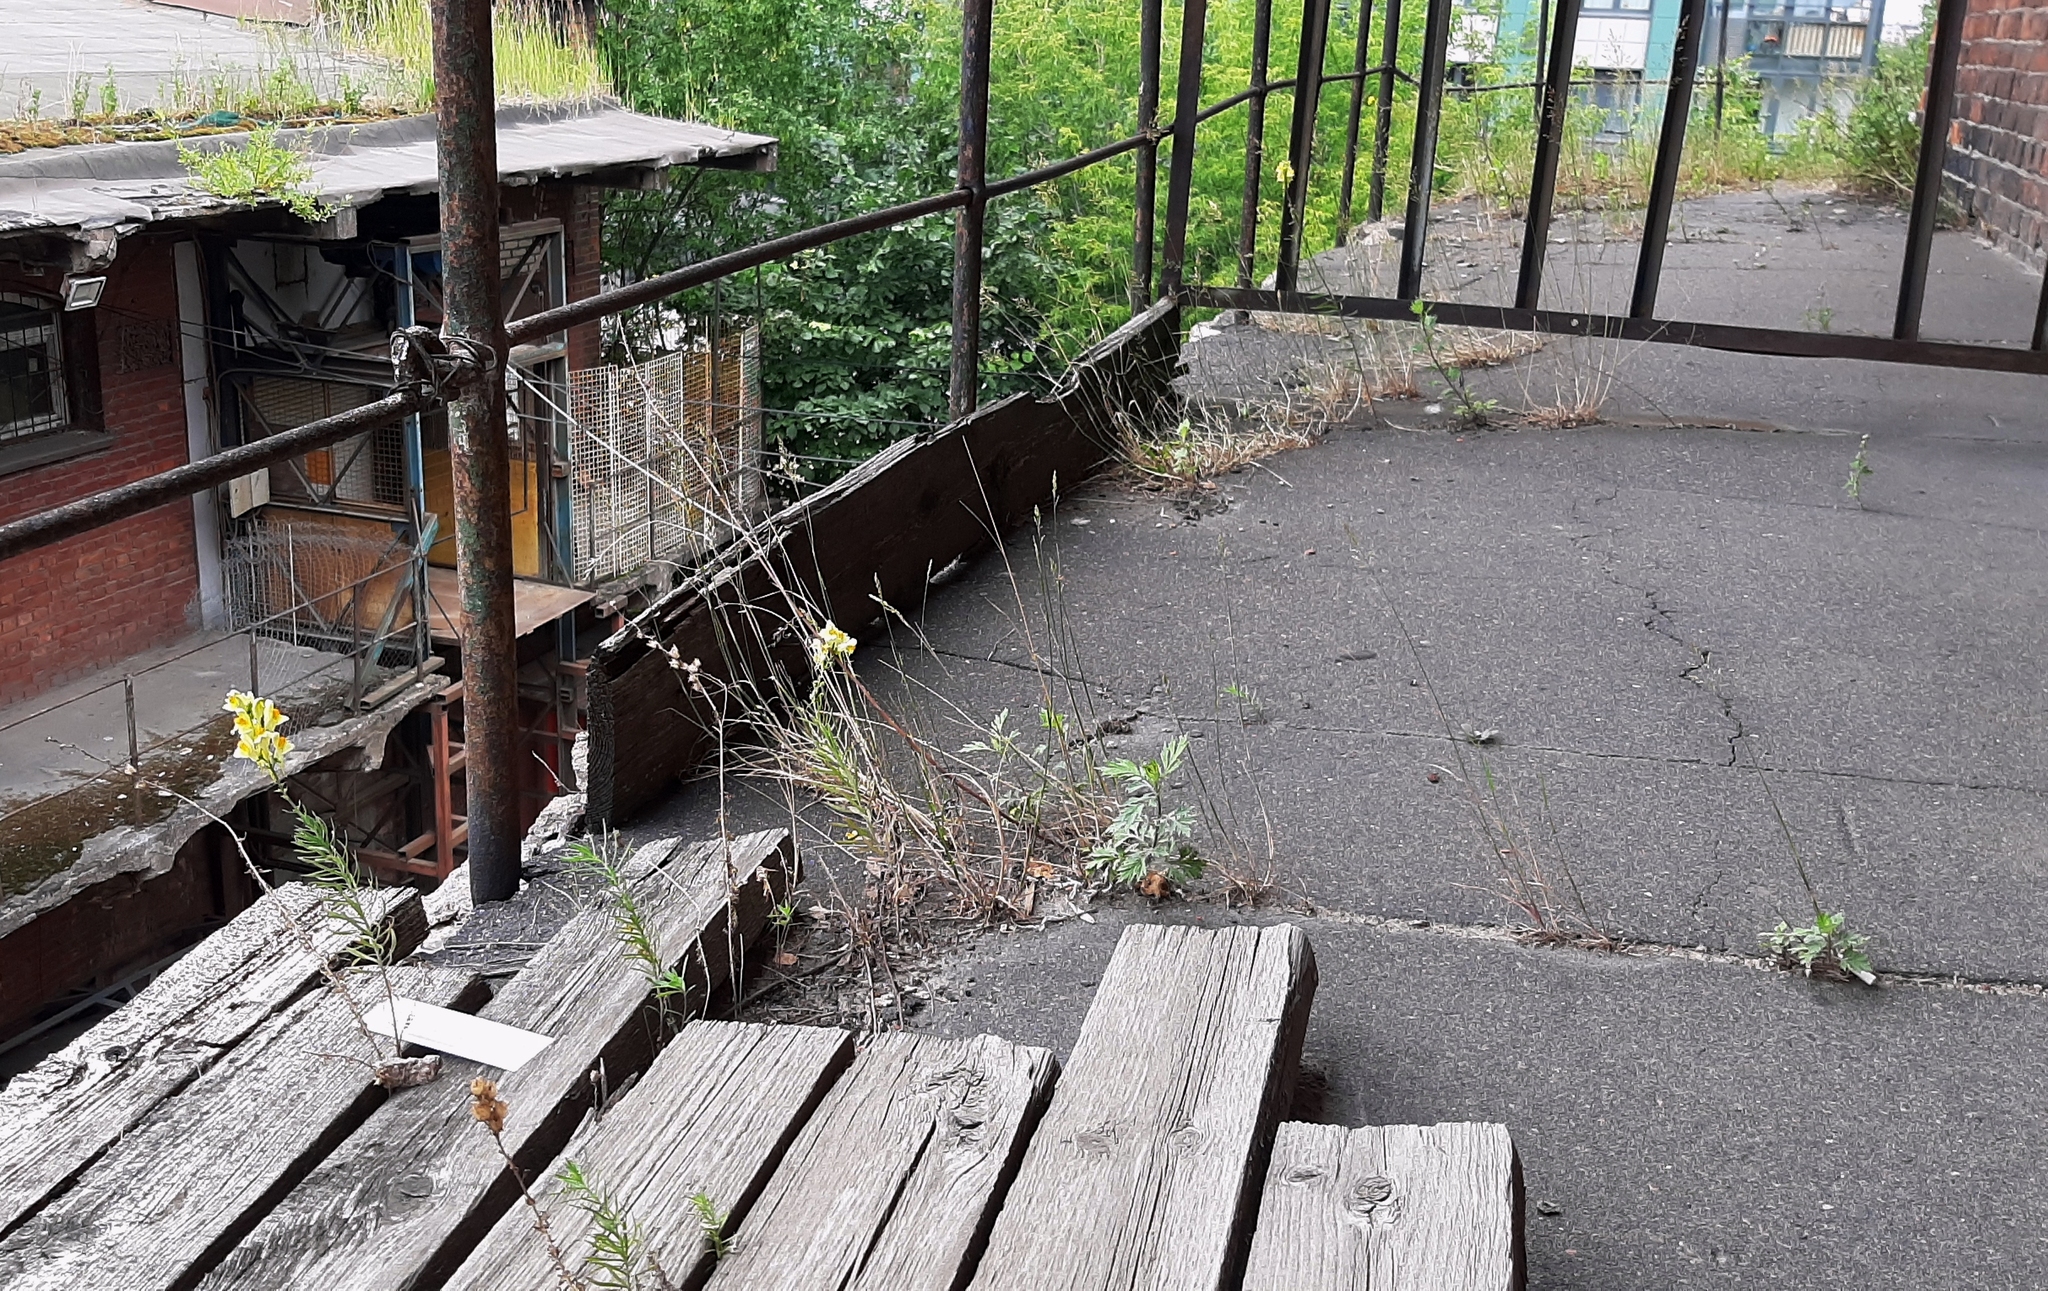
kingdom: Plantae
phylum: Tracheophyta
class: Magnoliopsida
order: Lamiales
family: Plantaginaceae
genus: Linaria
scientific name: Linaria vulgaris
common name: Butter and eggs
